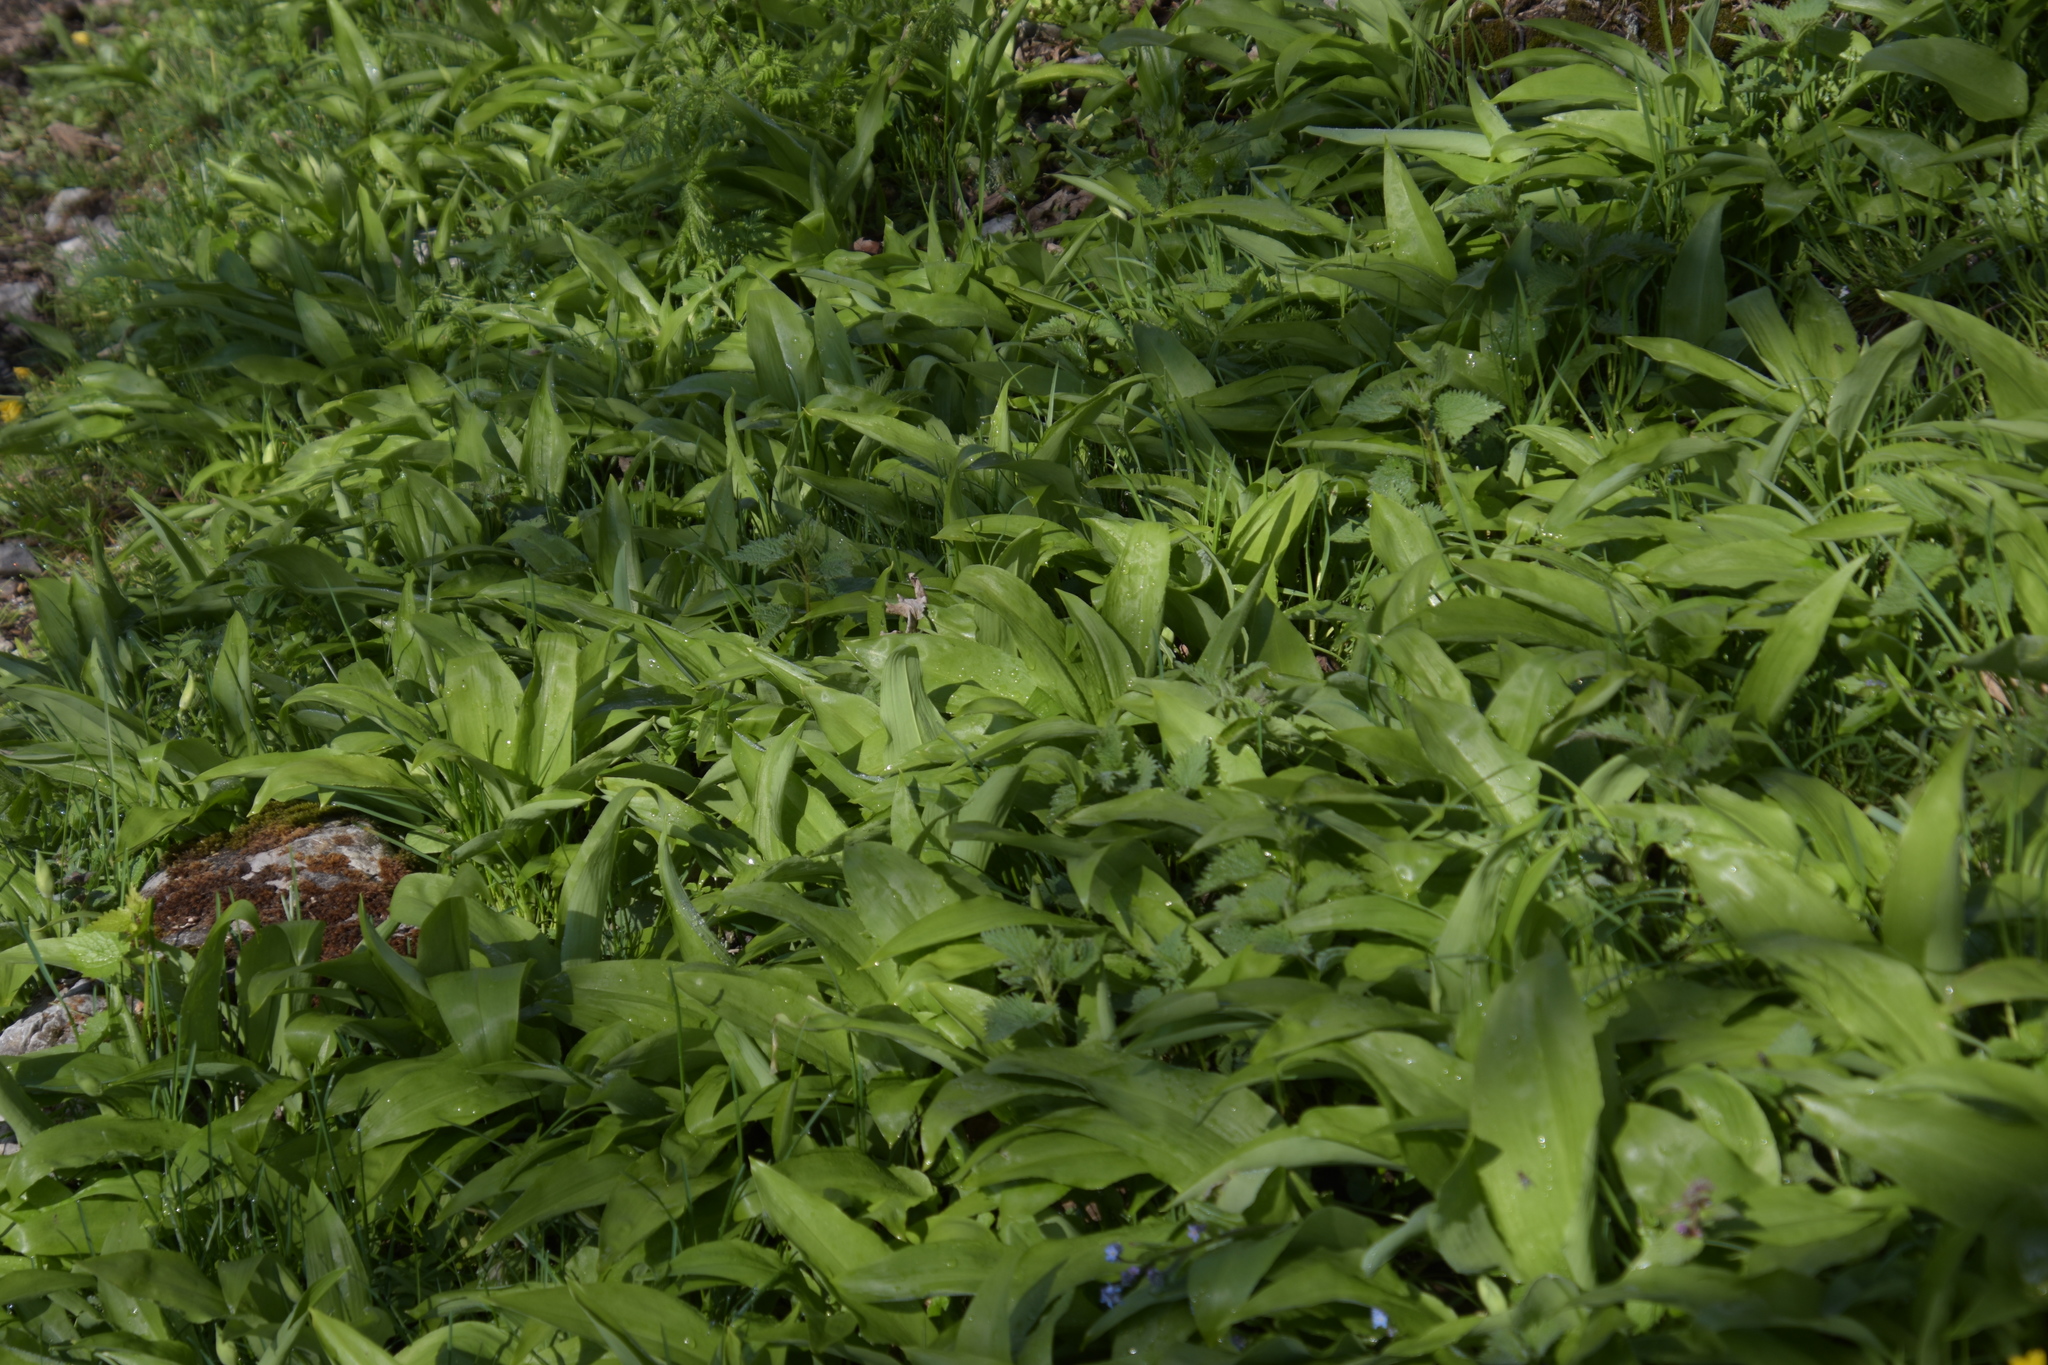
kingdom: Plantae
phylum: Tracheophyta
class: Liliopsida
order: Asparagales
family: Amaryllidaceae
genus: Allium
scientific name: Allium ursinum
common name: Ramsons
